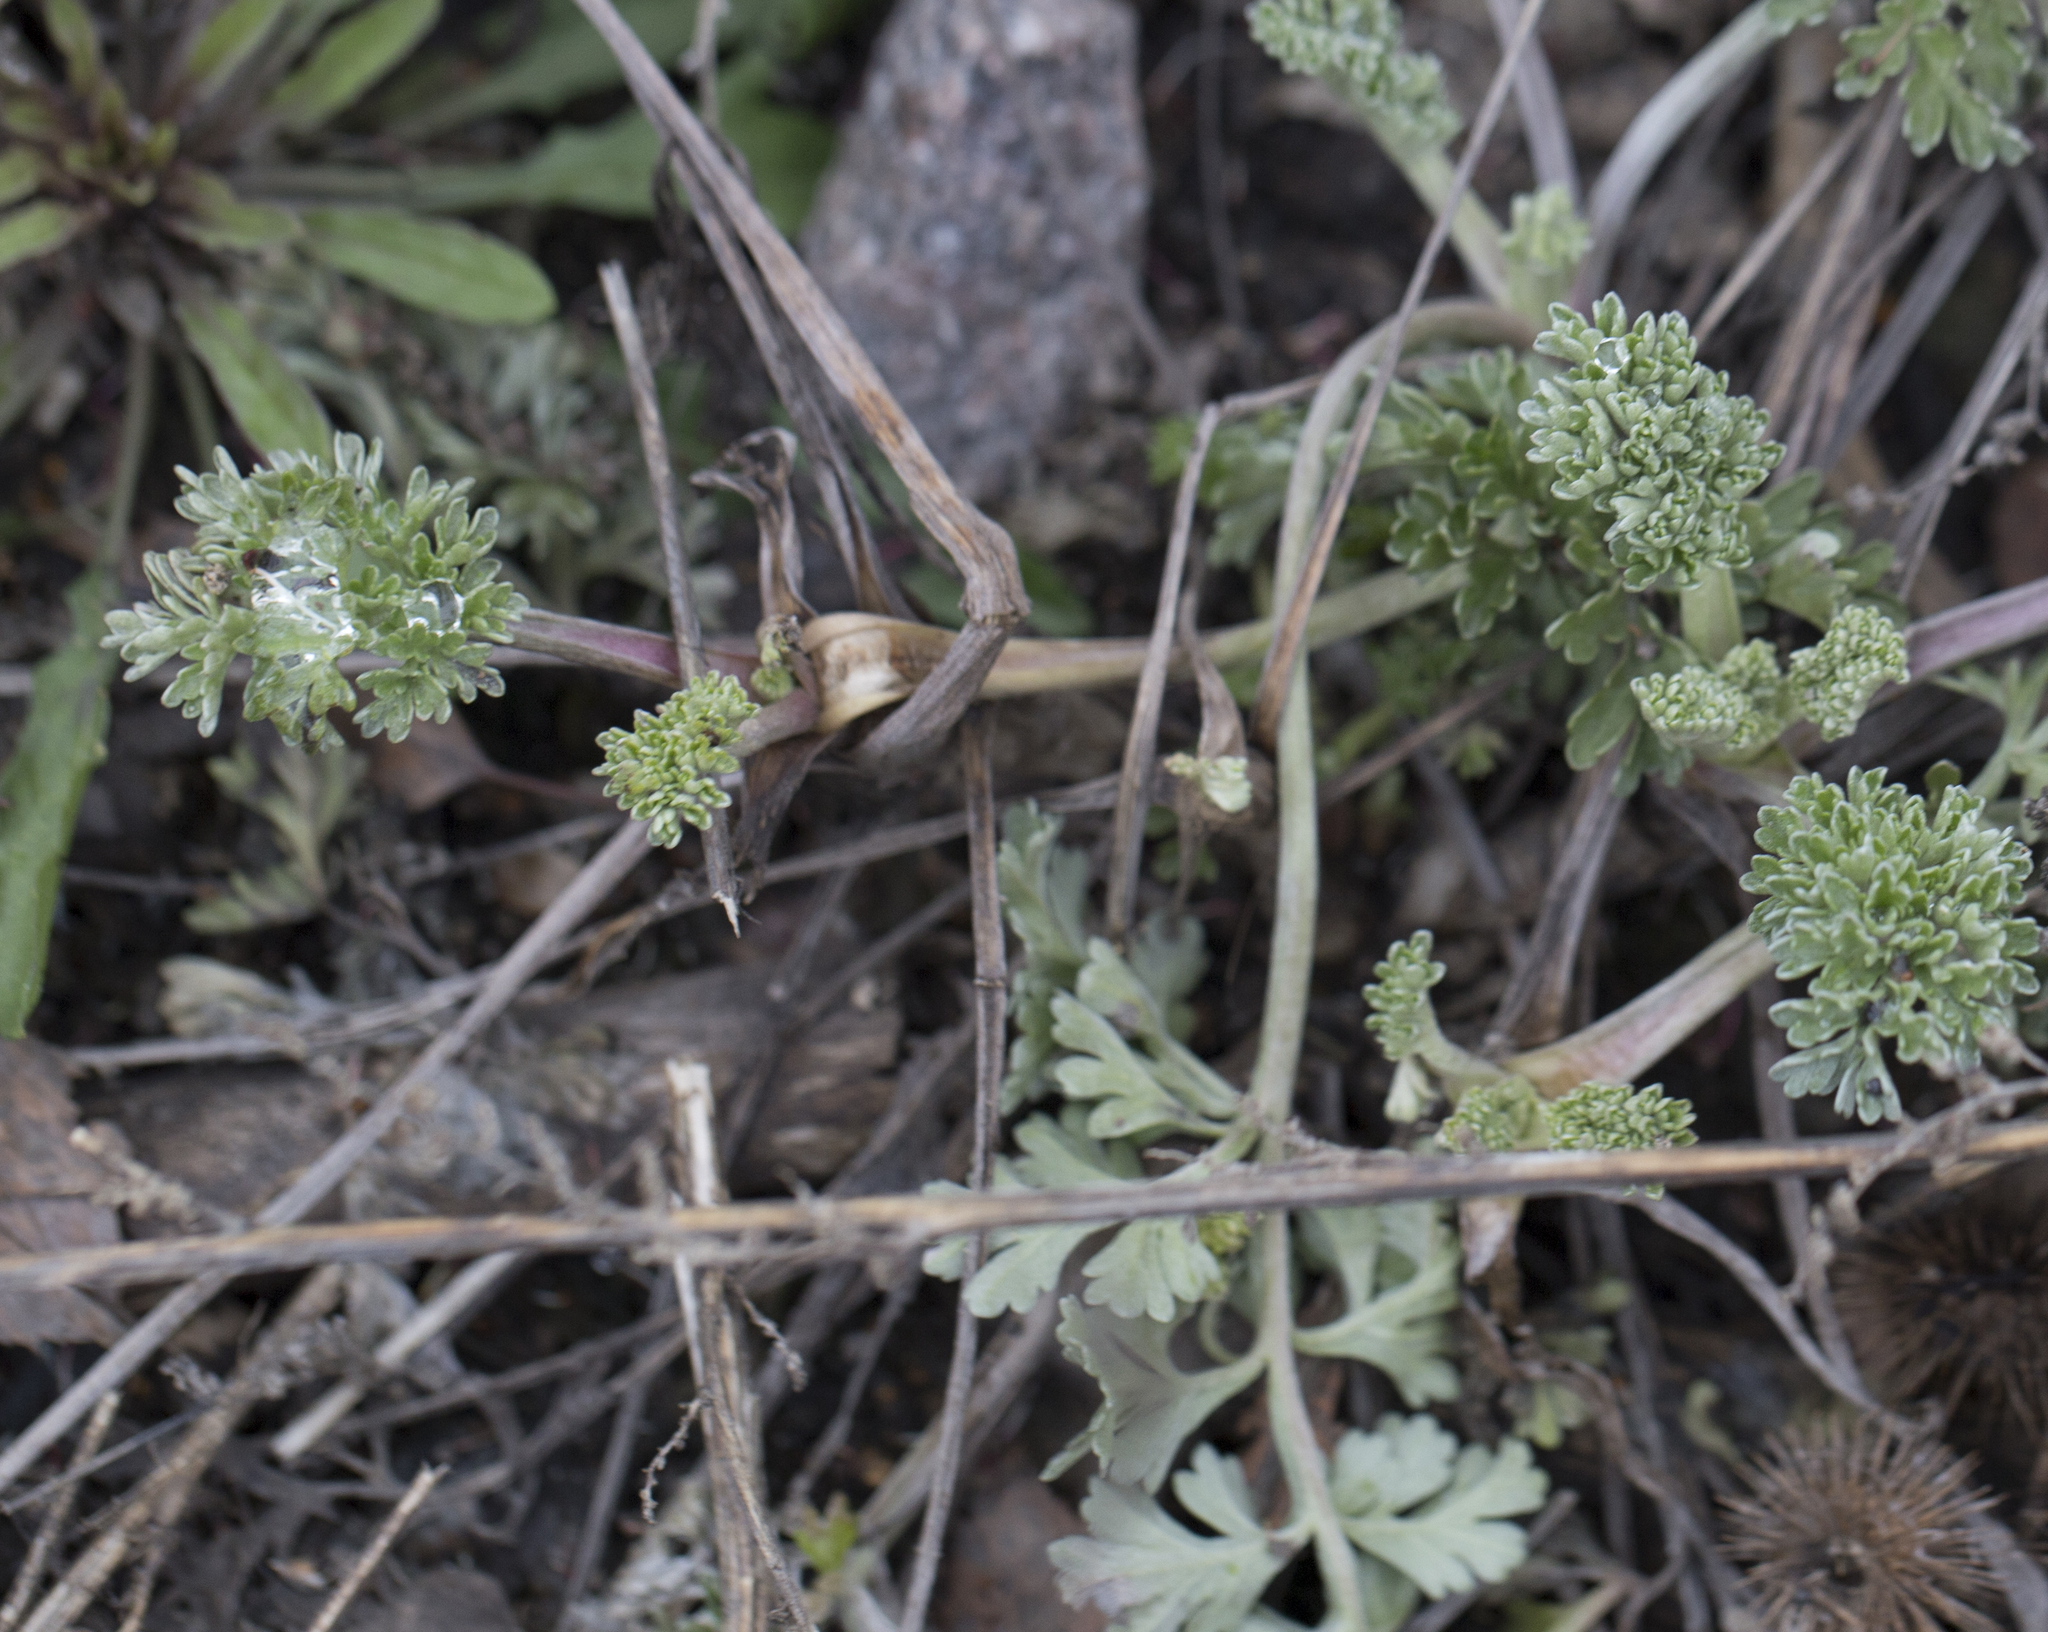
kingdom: Plantae
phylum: Tracheophyta
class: Magnoliopsida
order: Asterales
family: Asteraceae
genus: Artemisia
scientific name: Artemisia absinthium
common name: Wormwood
